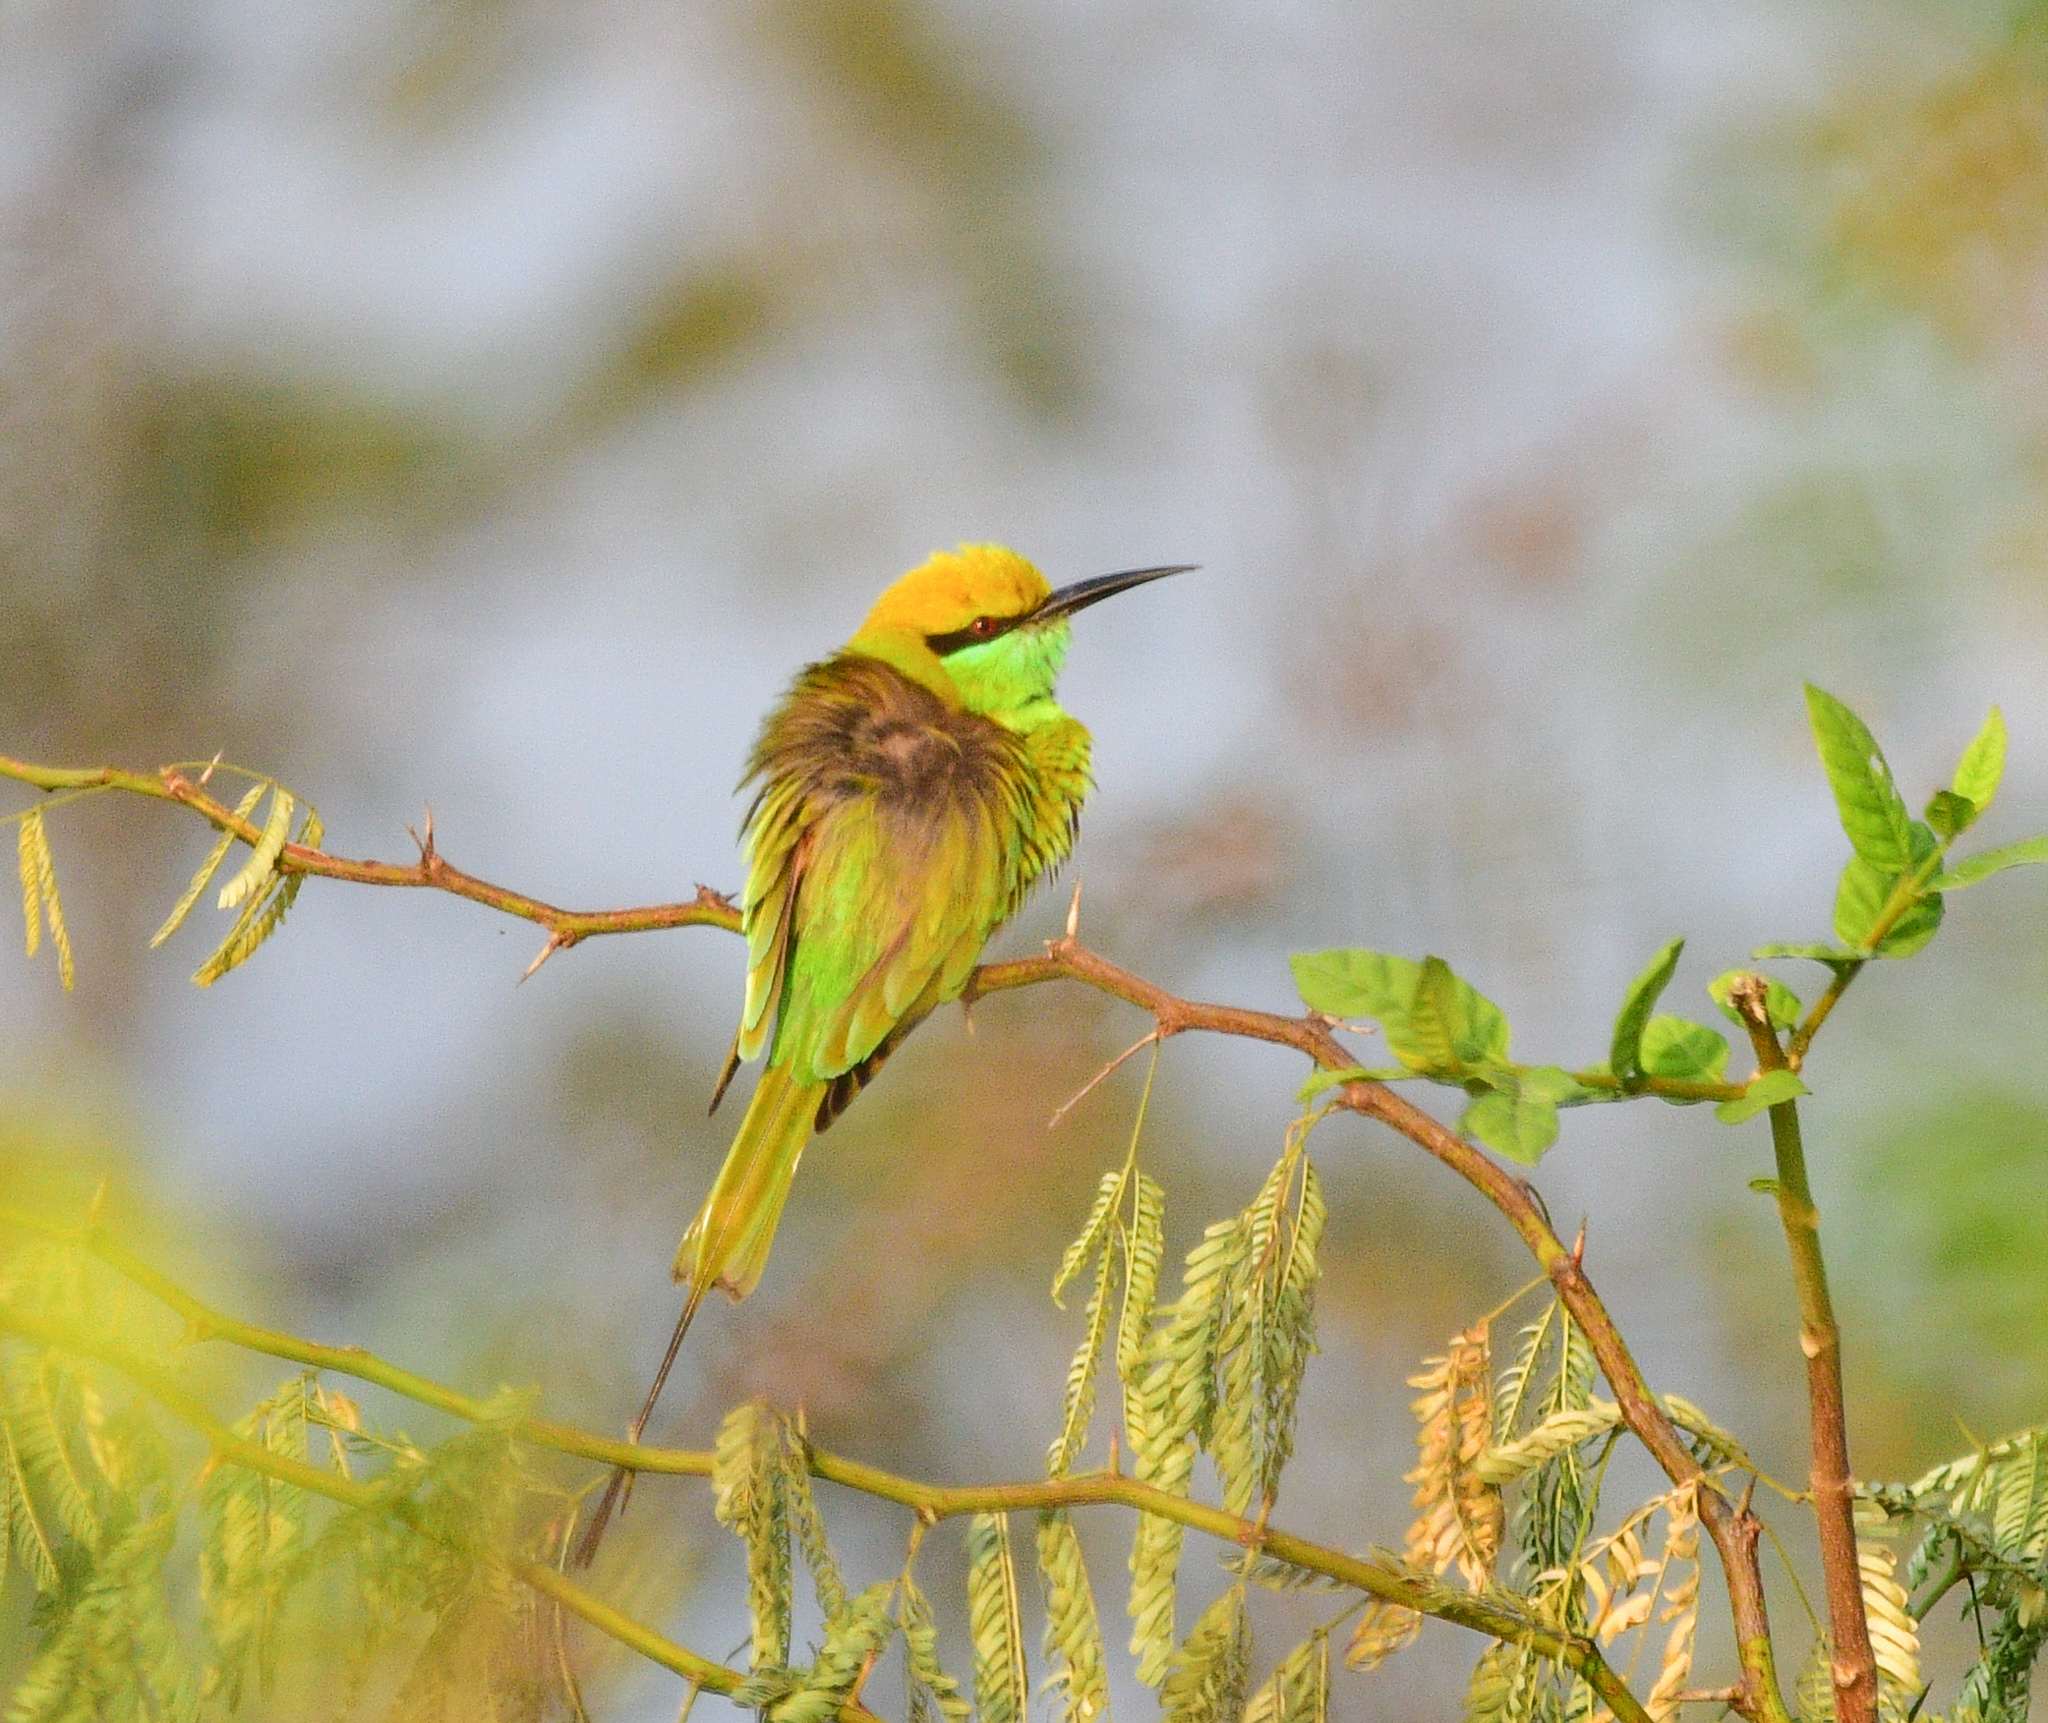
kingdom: Animalia
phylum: Chordata
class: Aves
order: Coraciiformes
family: Meropidae
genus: Merops
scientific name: Merops orientalis
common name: Green bee-eater
